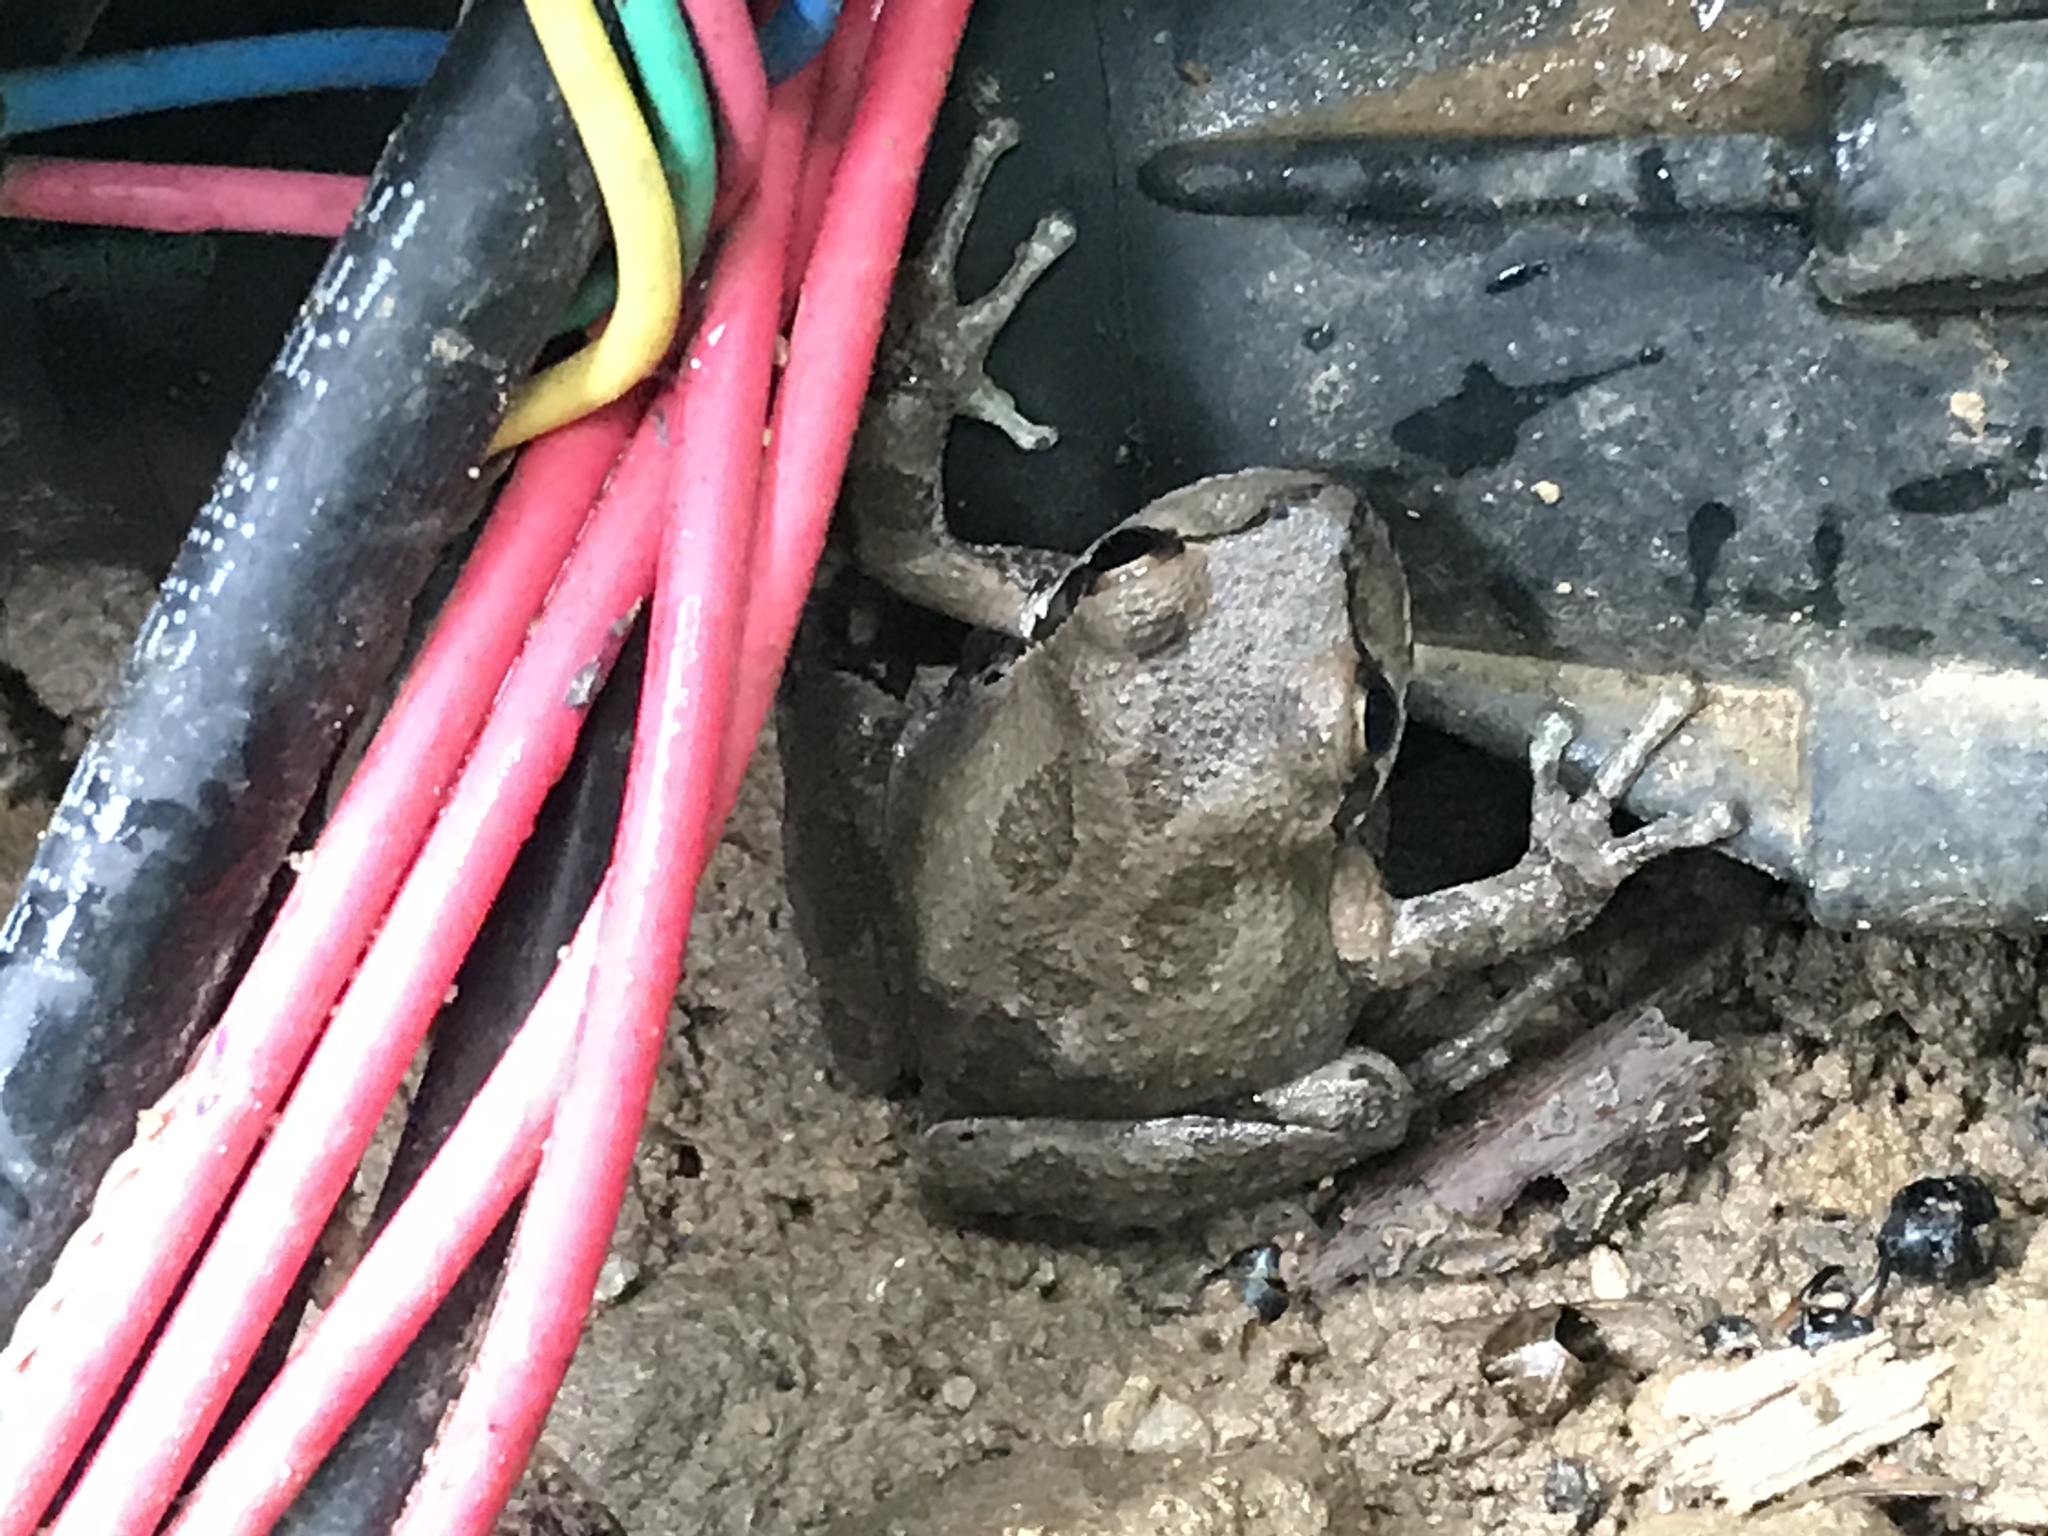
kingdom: Animalia
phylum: Chordata
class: Amphibia
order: Anura
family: Hylidae
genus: Pseudacris
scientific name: Pseudacris regilla
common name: Pacific chorus frog
